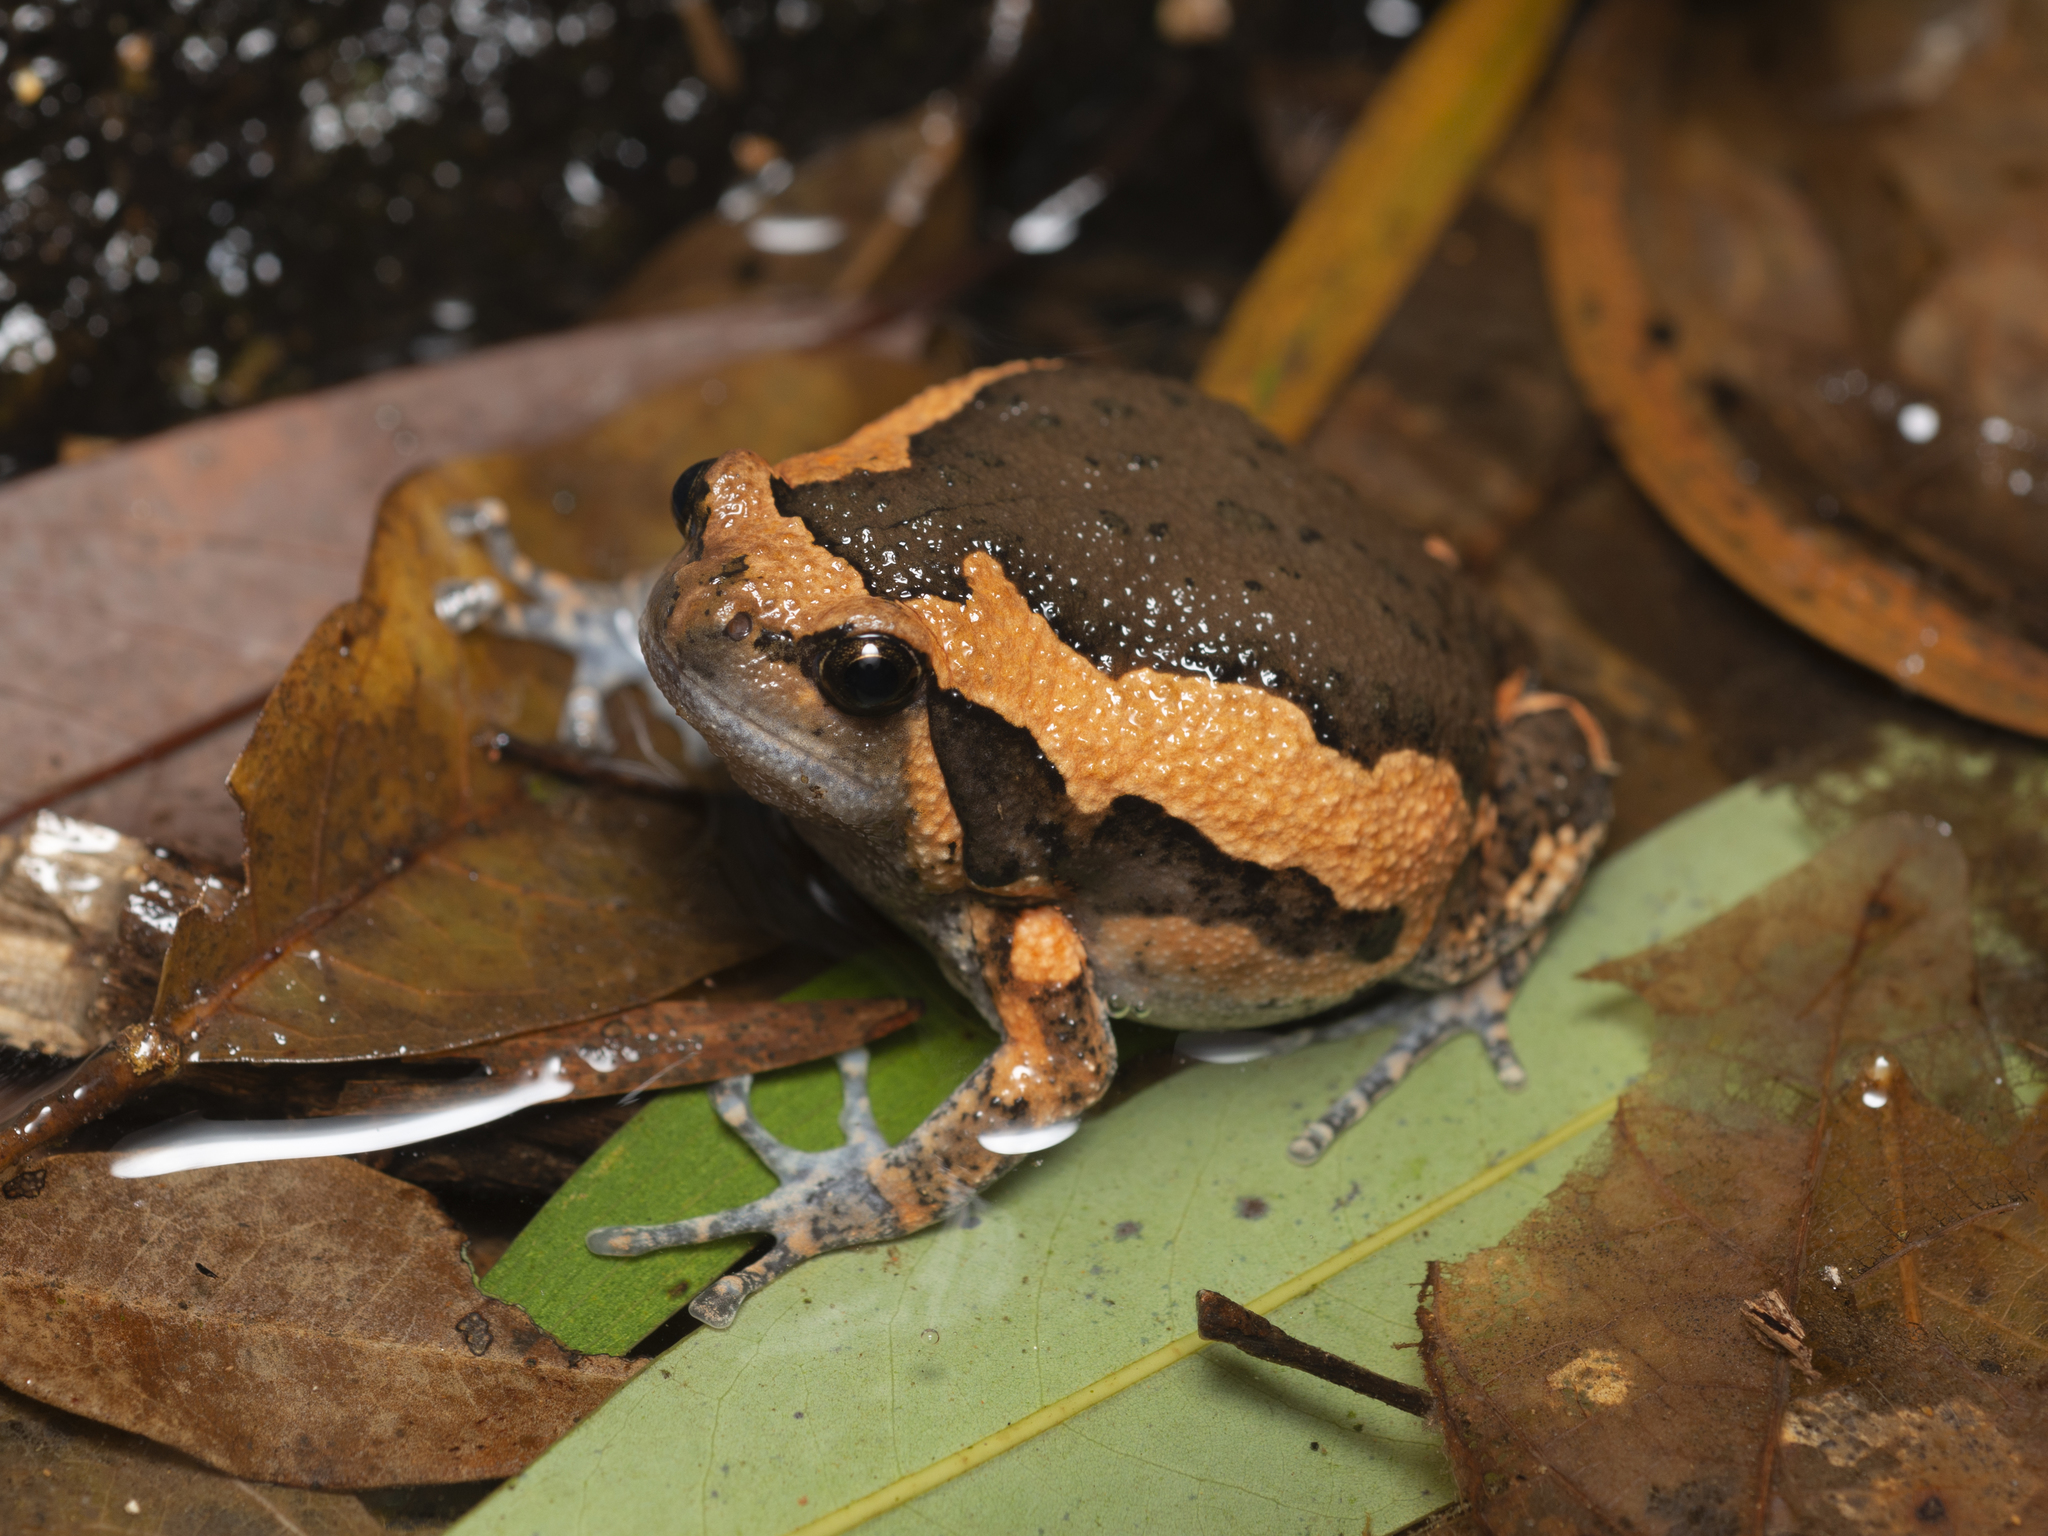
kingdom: Animalia
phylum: Chordata
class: Amphibia
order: Anura
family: Microhylidae
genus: Kaloula
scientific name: Kaloula pulchra
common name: Common,banded bullfrog
